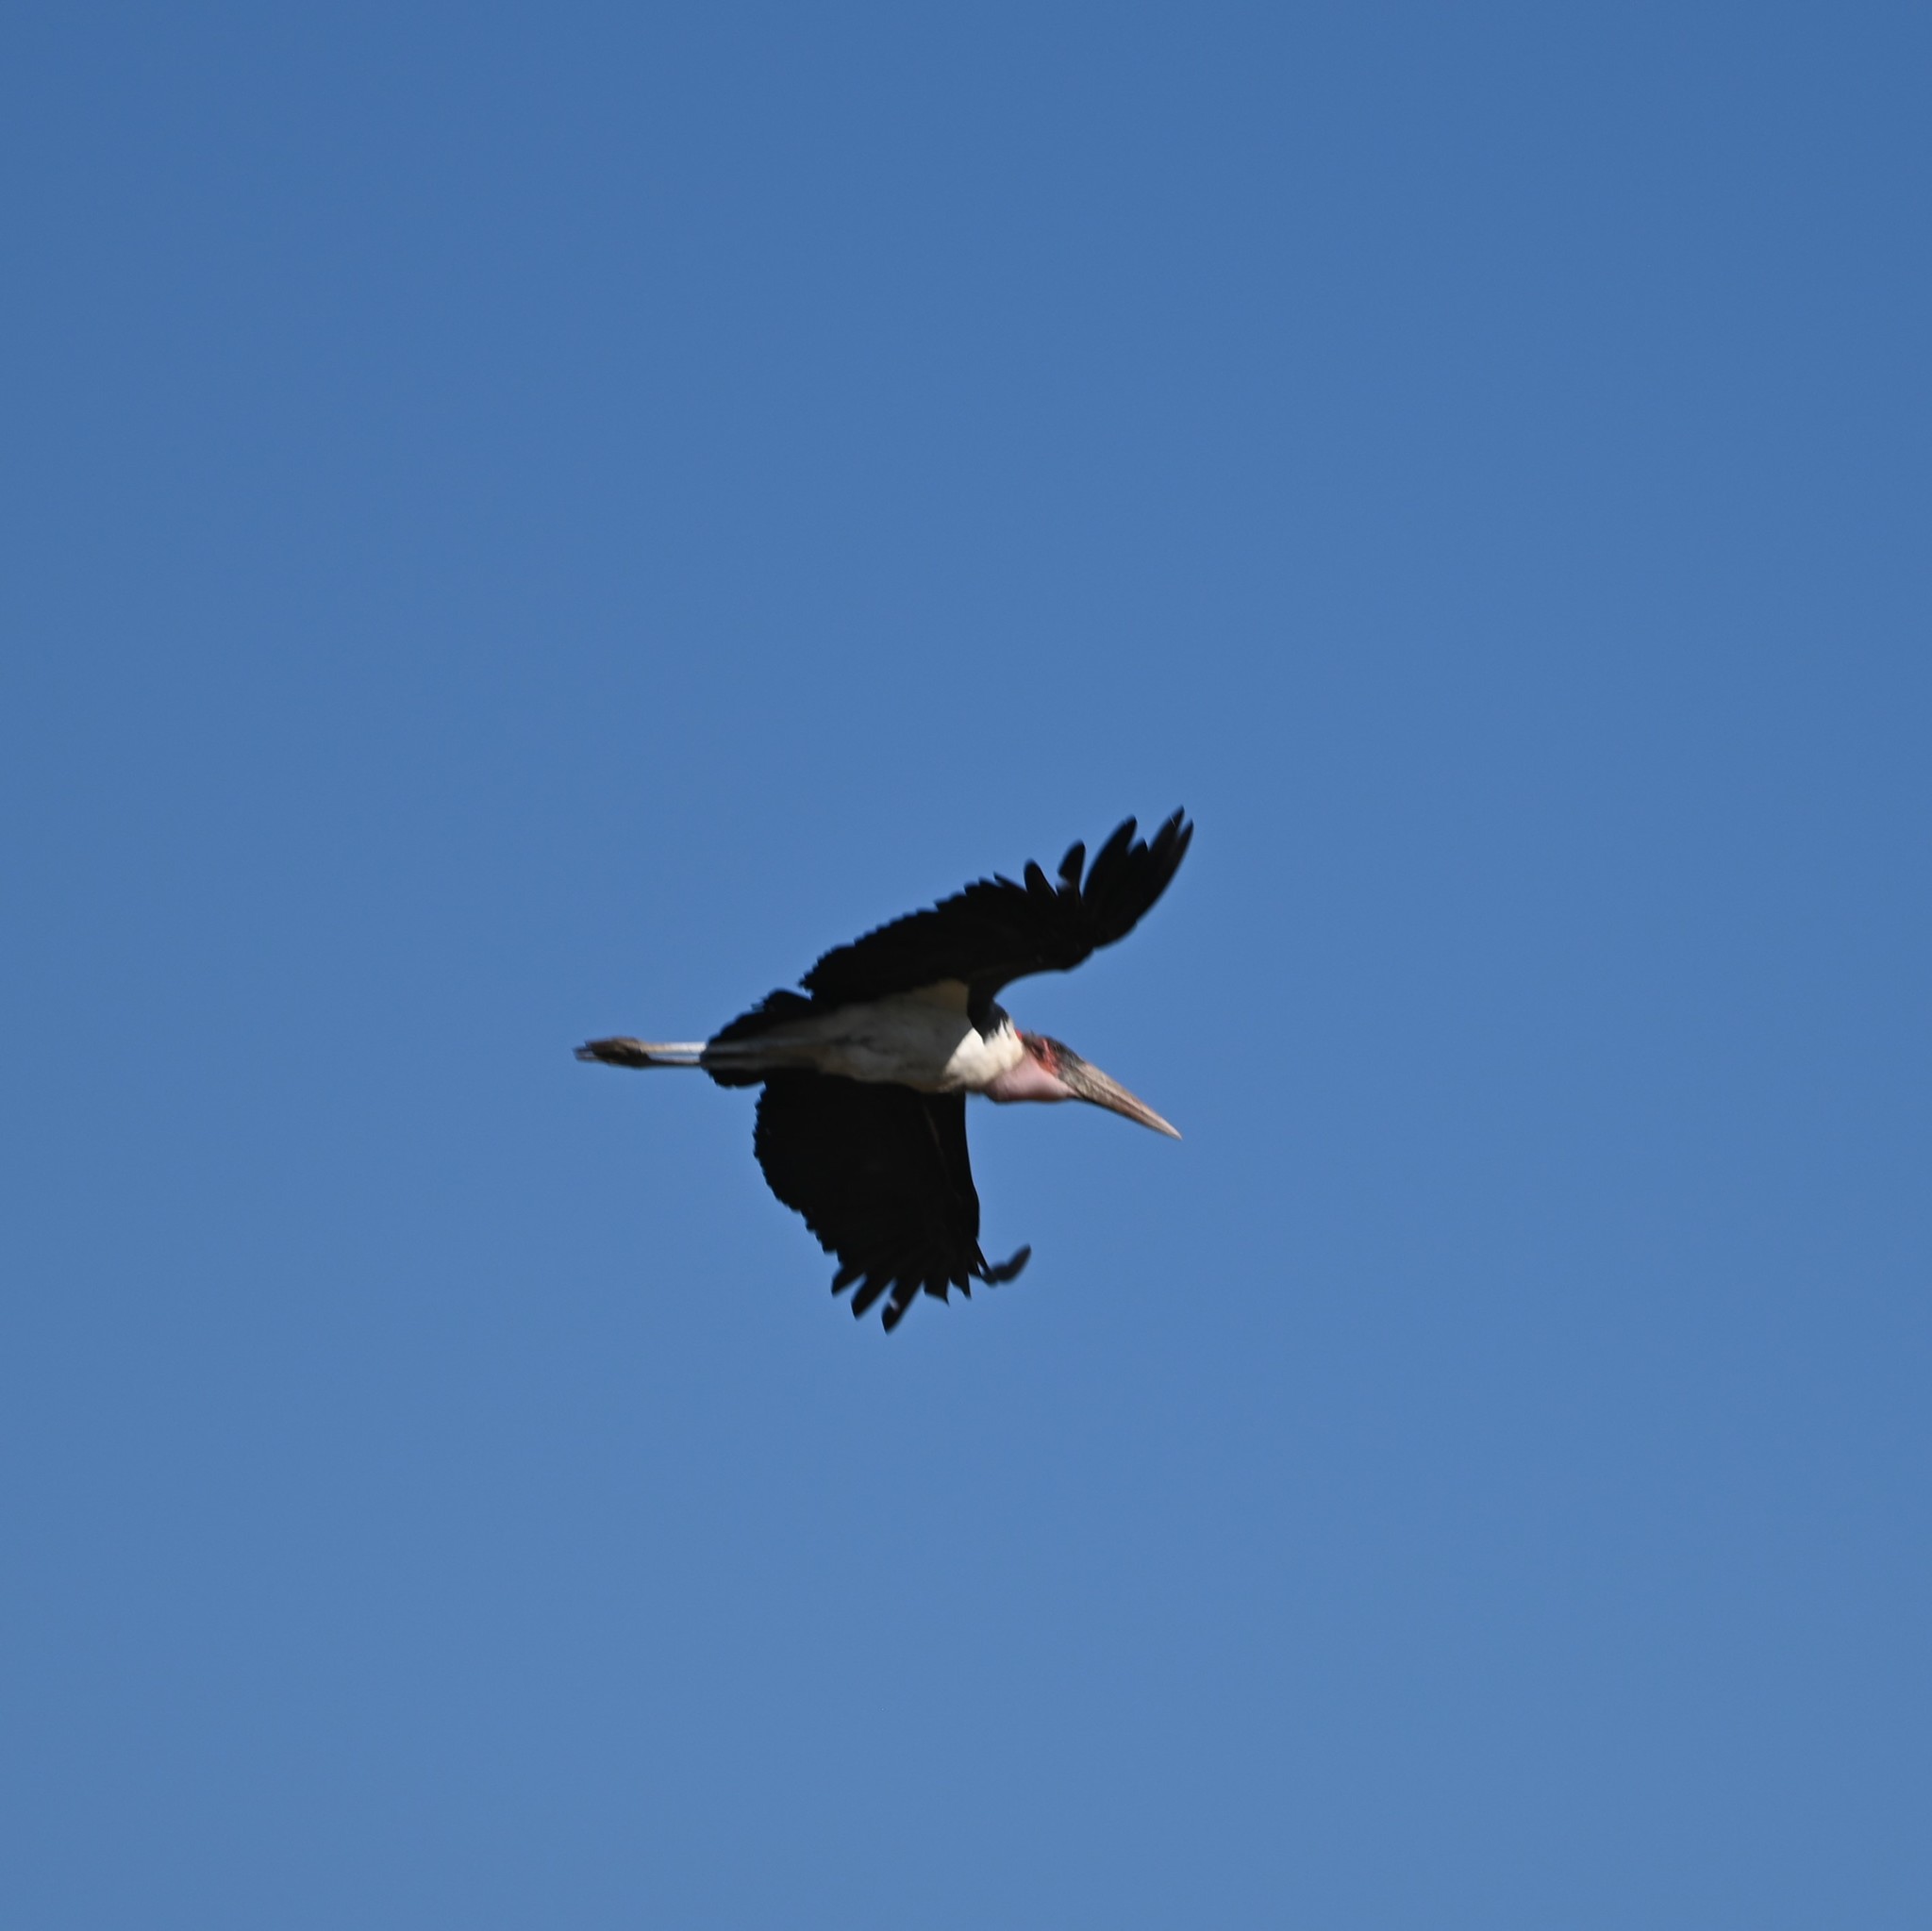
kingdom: Animalia
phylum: Chordata
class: Aves
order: Ciconiiformes
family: Ciconiidae
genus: Leptoptilos
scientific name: Leptoptilos crumenifer
